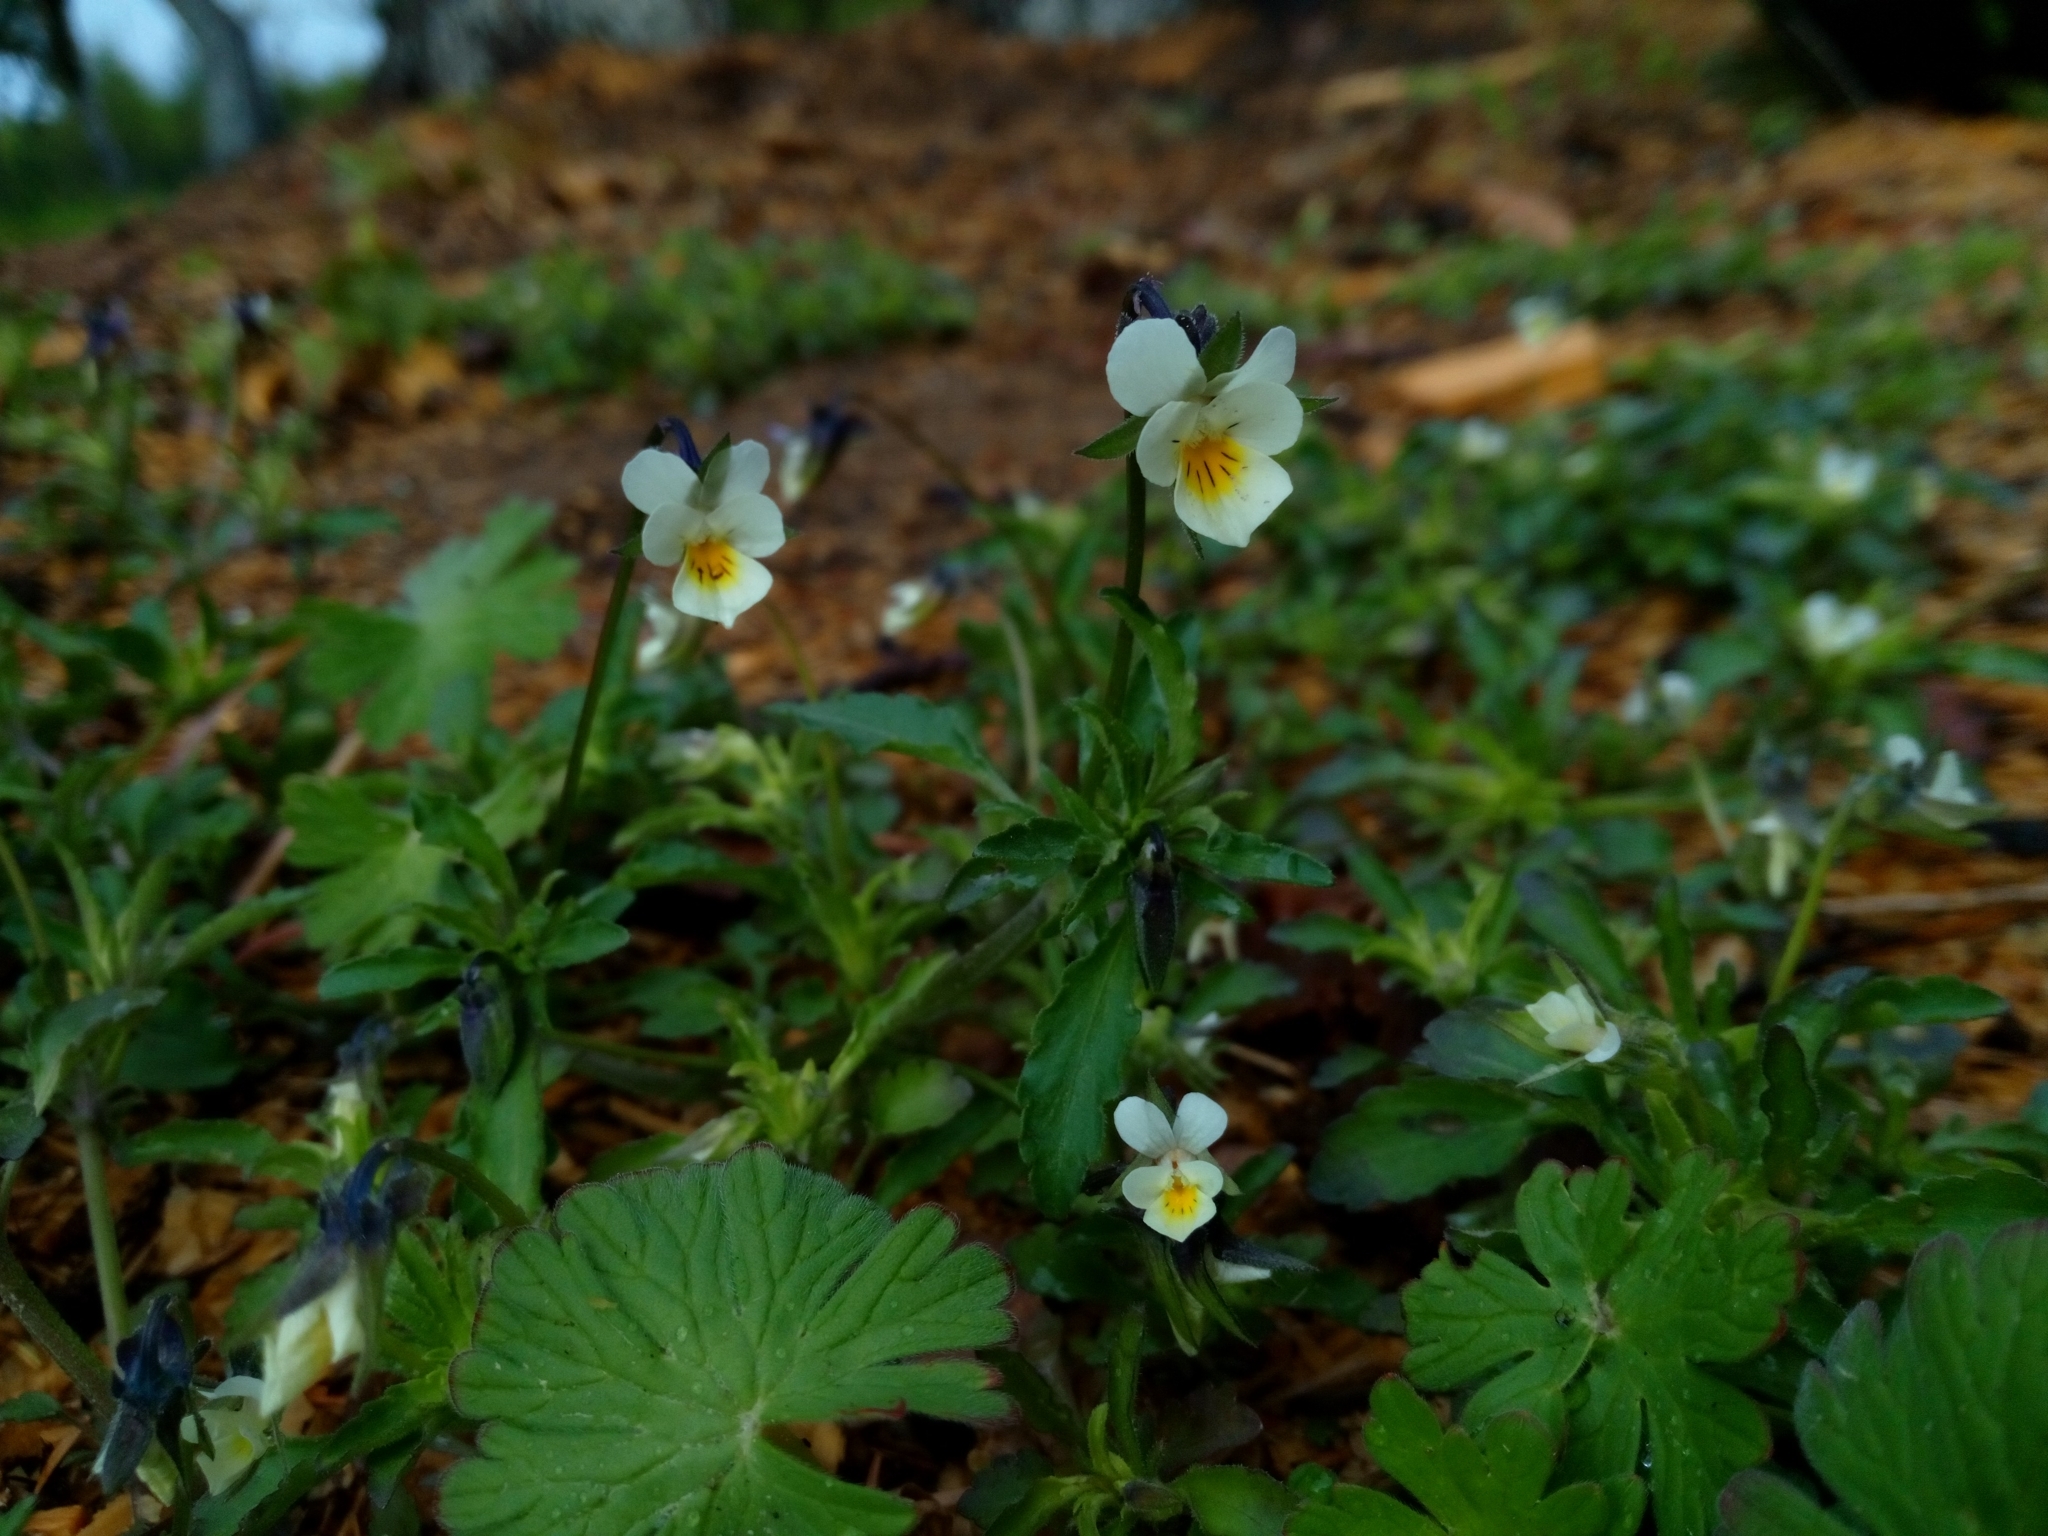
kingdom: Plantae
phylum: Tracheophyta
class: Magnoliopsida
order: Malpighiales
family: Violaceae
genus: Viola
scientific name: Viola arvensis
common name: Field pansy
